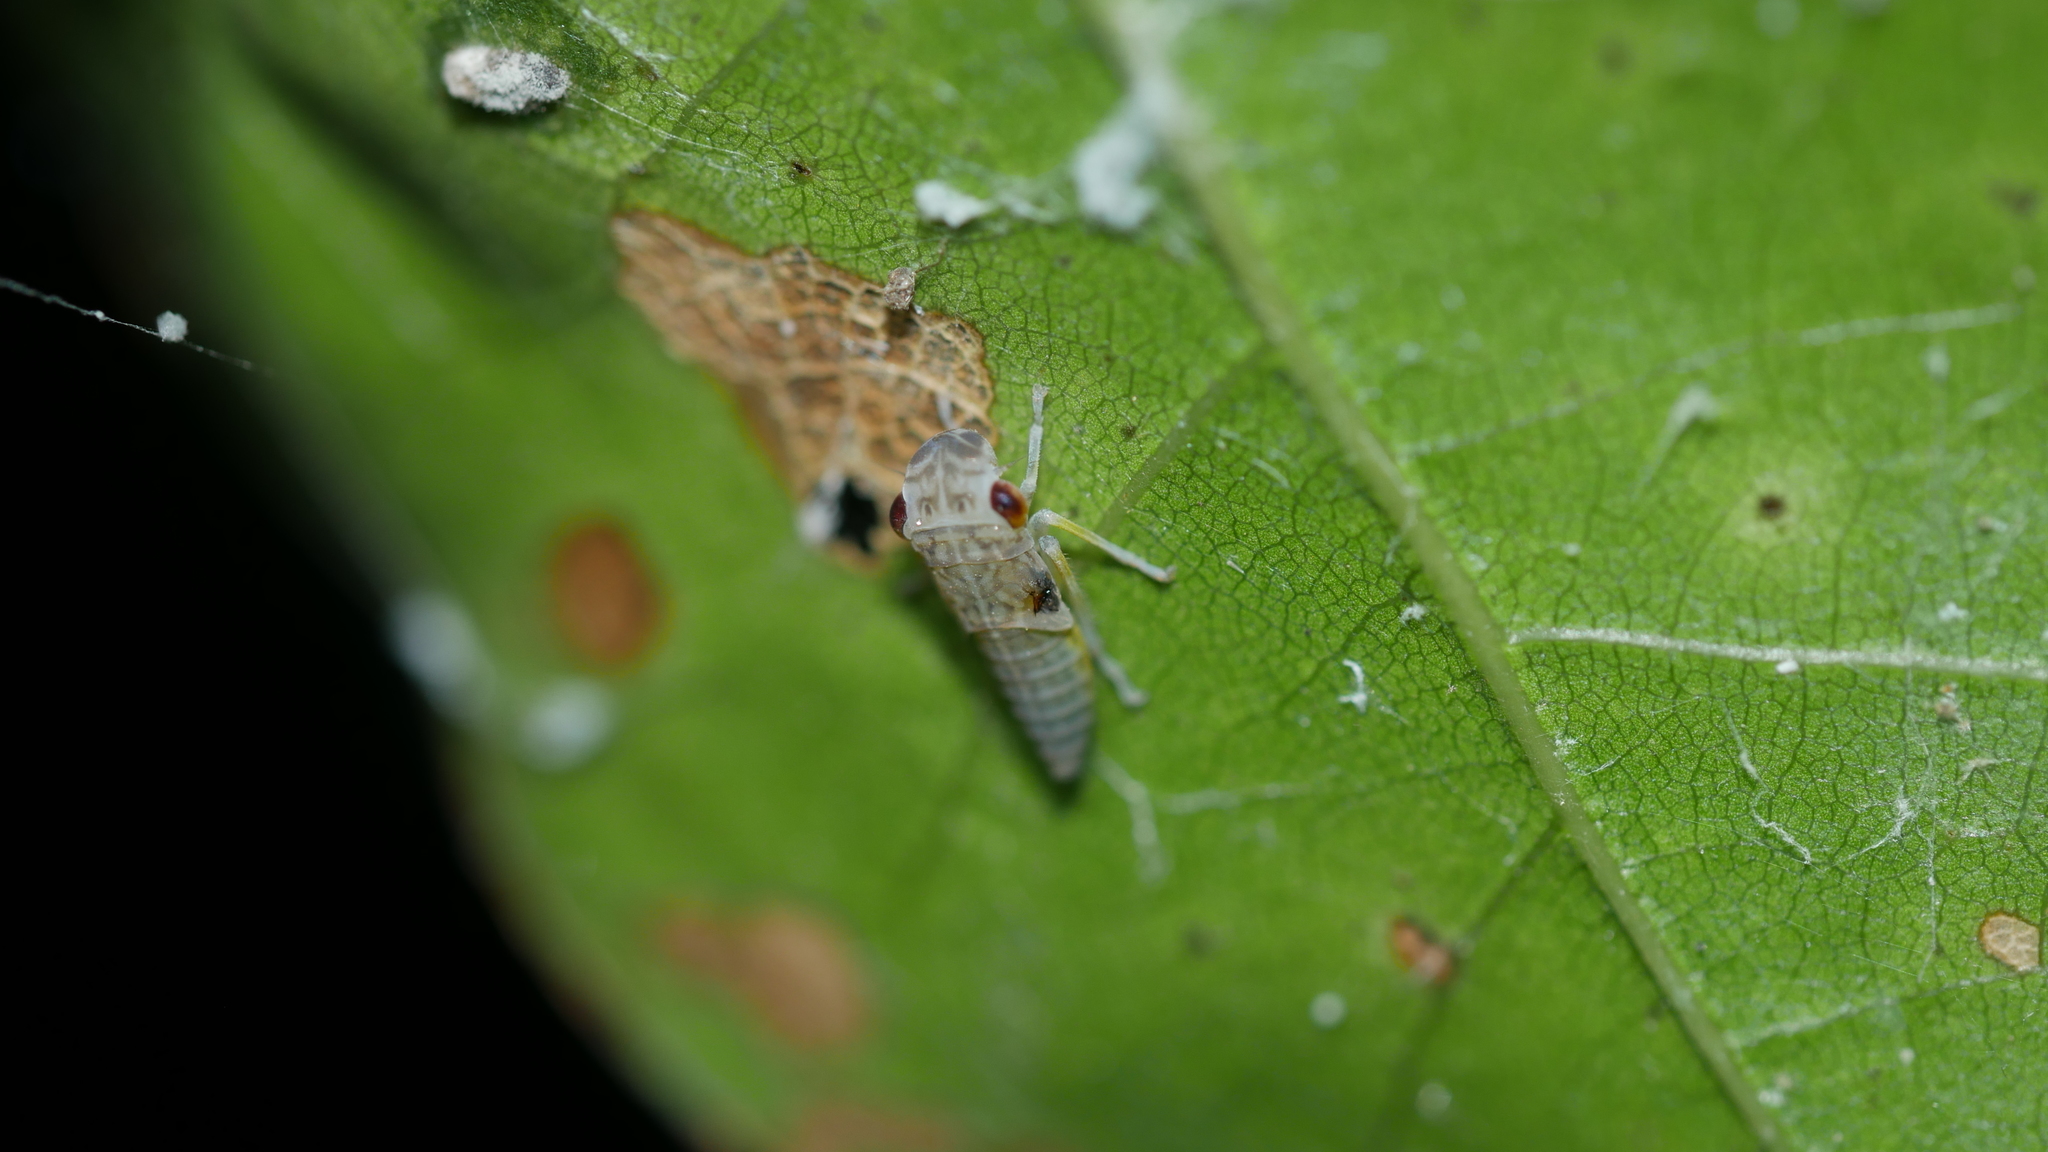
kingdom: Animalia
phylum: Arthropoda
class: Insecta
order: Hemiptera
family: Cicadellidae
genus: Oncometopia
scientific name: Oncometopia orbona
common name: Broad-headed sharpshooter
